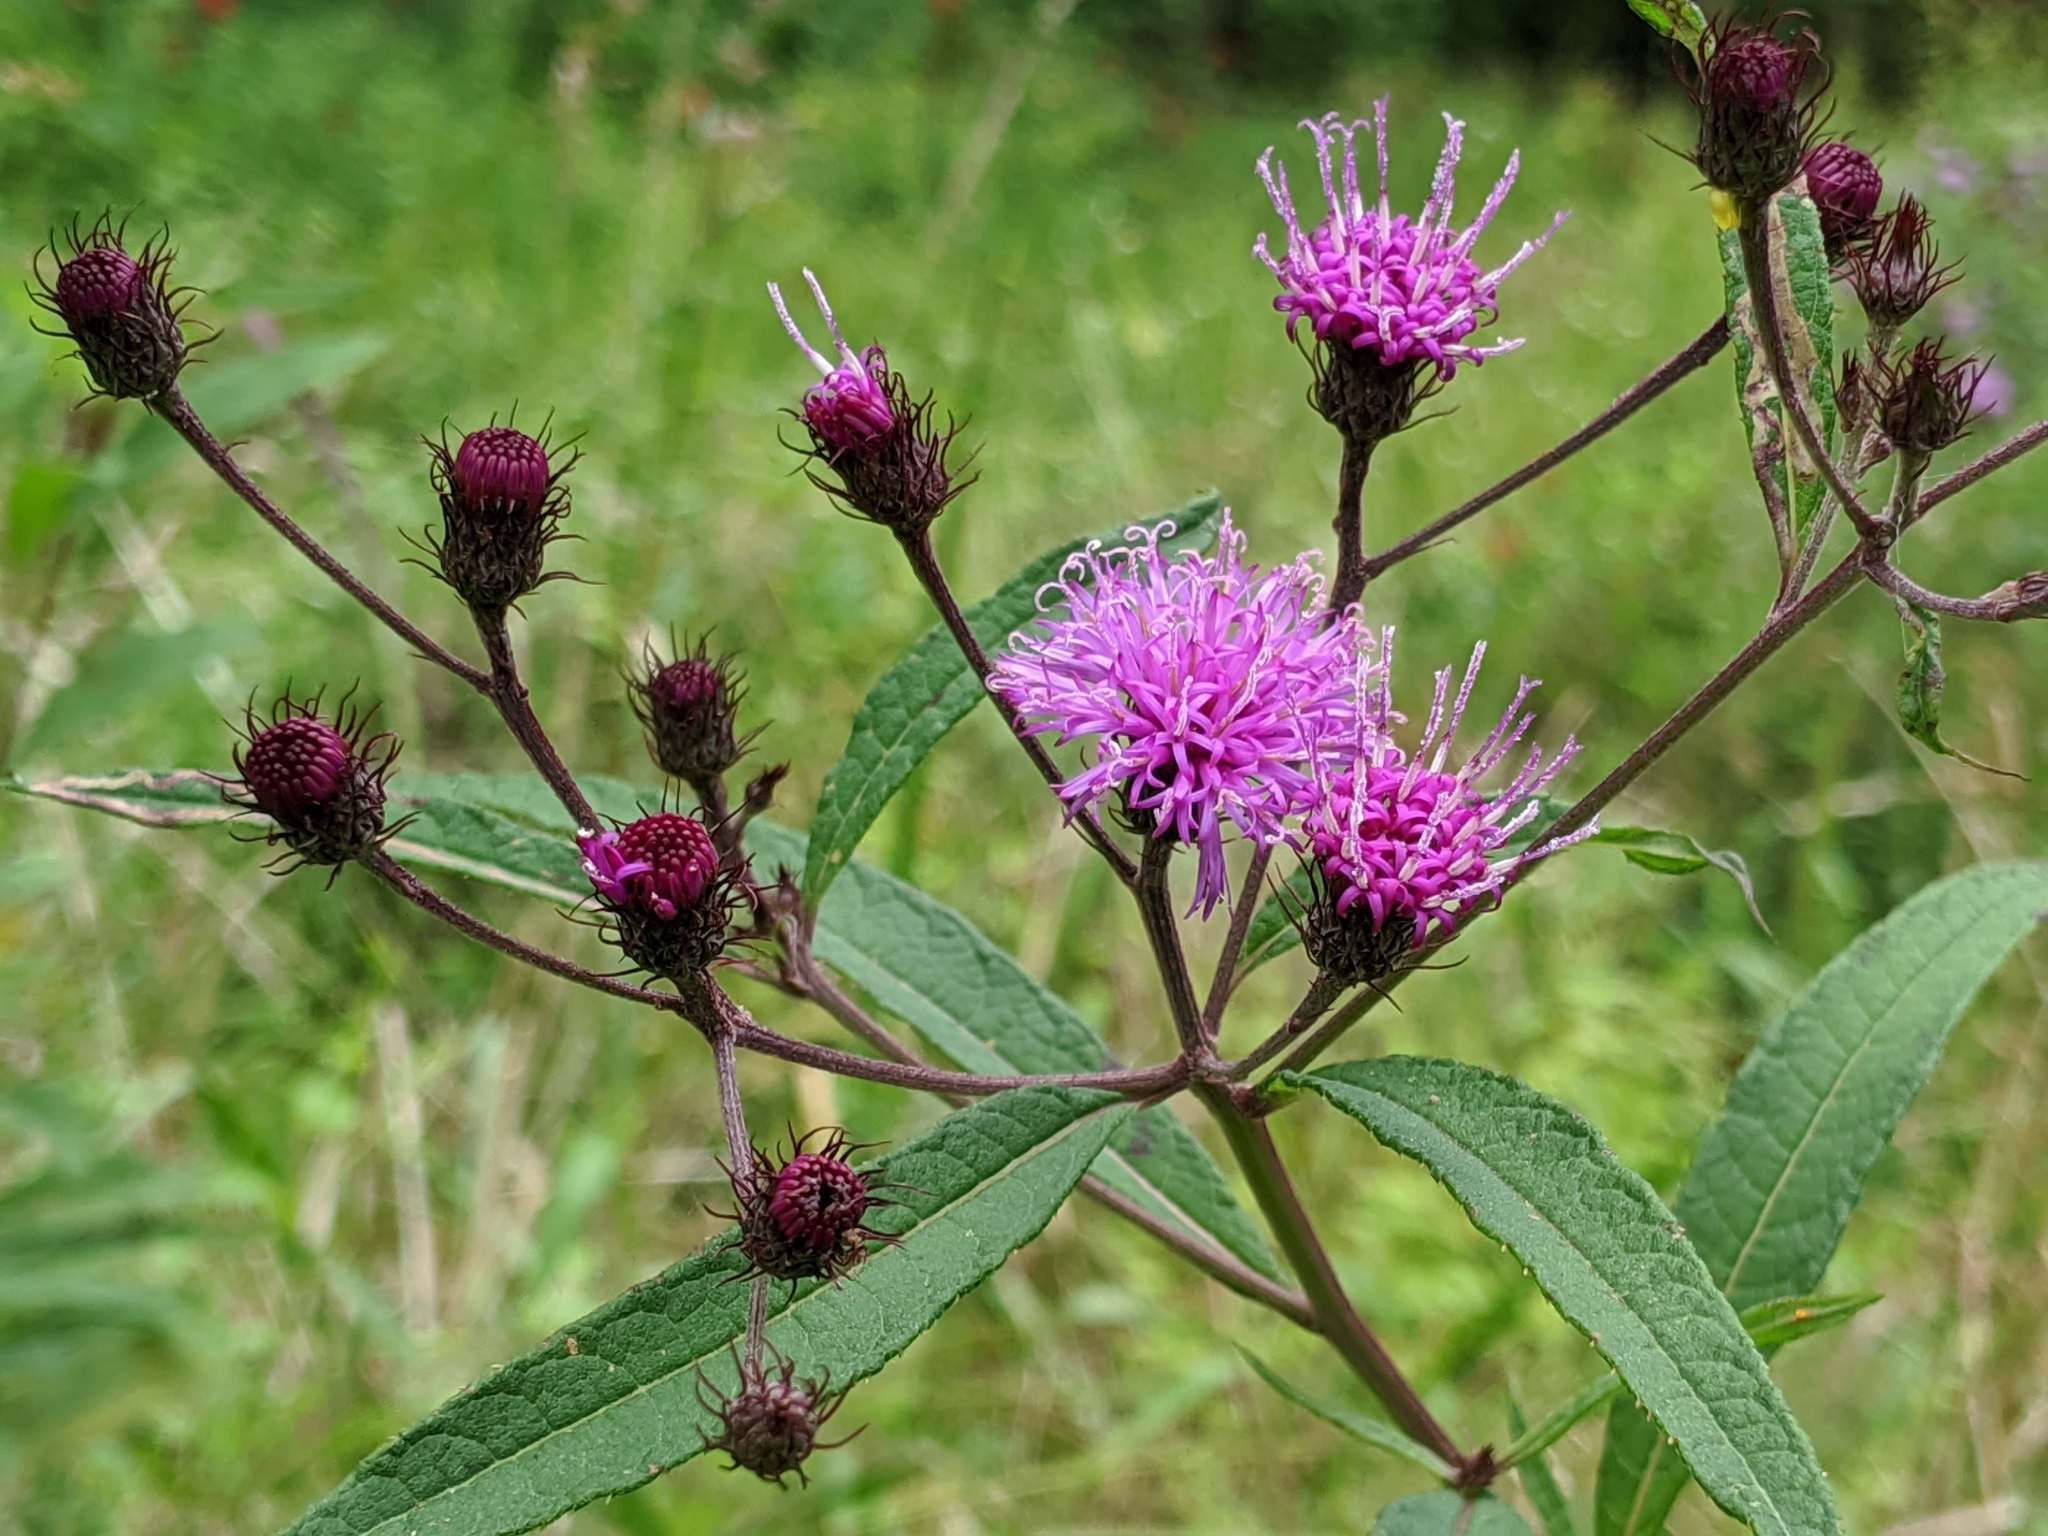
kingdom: Plantae
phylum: Tracheophyta
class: Magnoliopsida
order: Asterales
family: Asteraceae
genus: Vernonia
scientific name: Vernonia noveboracensis
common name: New york ironweed
